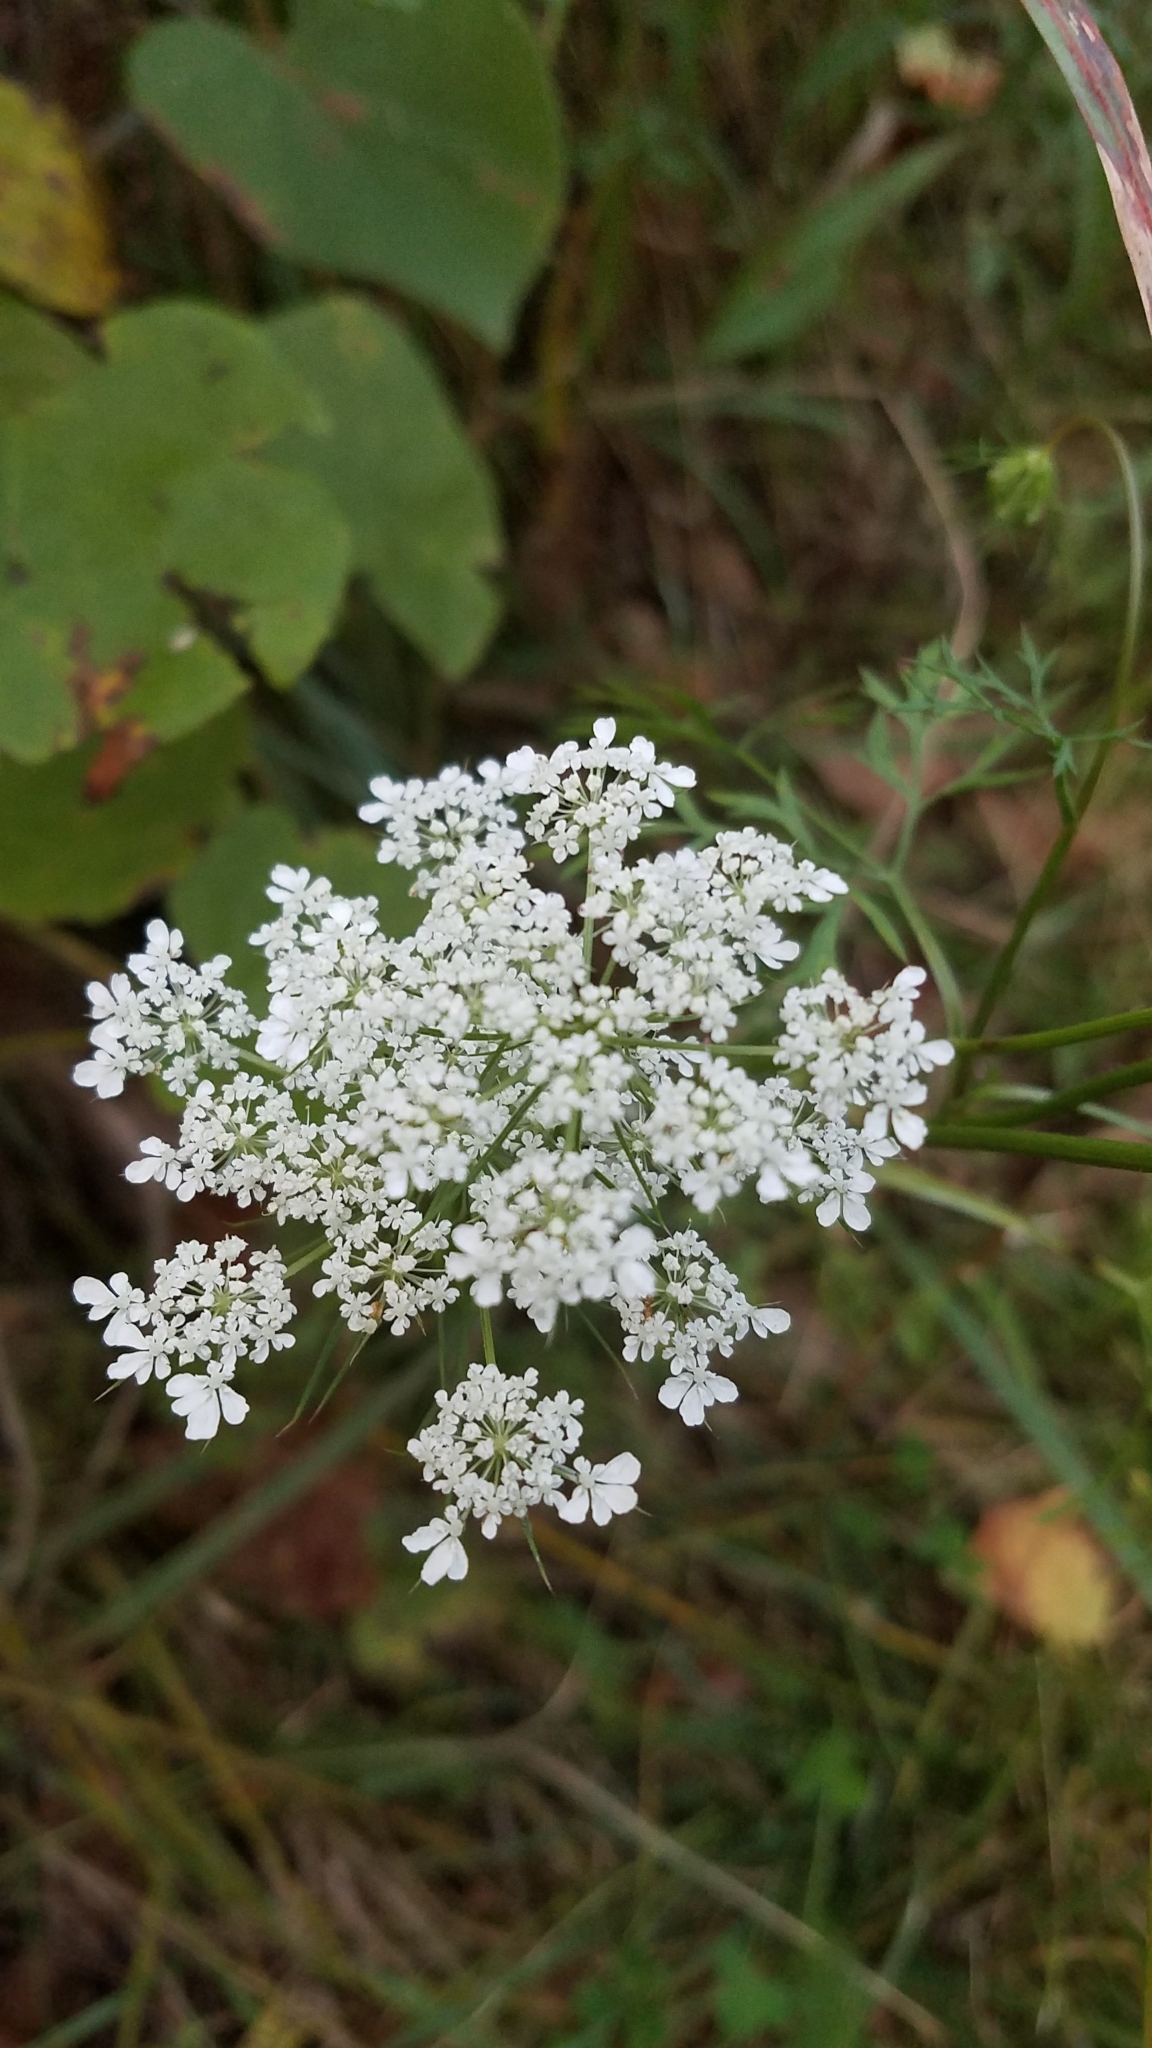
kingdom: Plantae
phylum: Tracheophyta
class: Magnoliopsida
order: Apiales
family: Apiaceae
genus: Daucus
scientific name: Daucus carota
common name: Wild carrot
